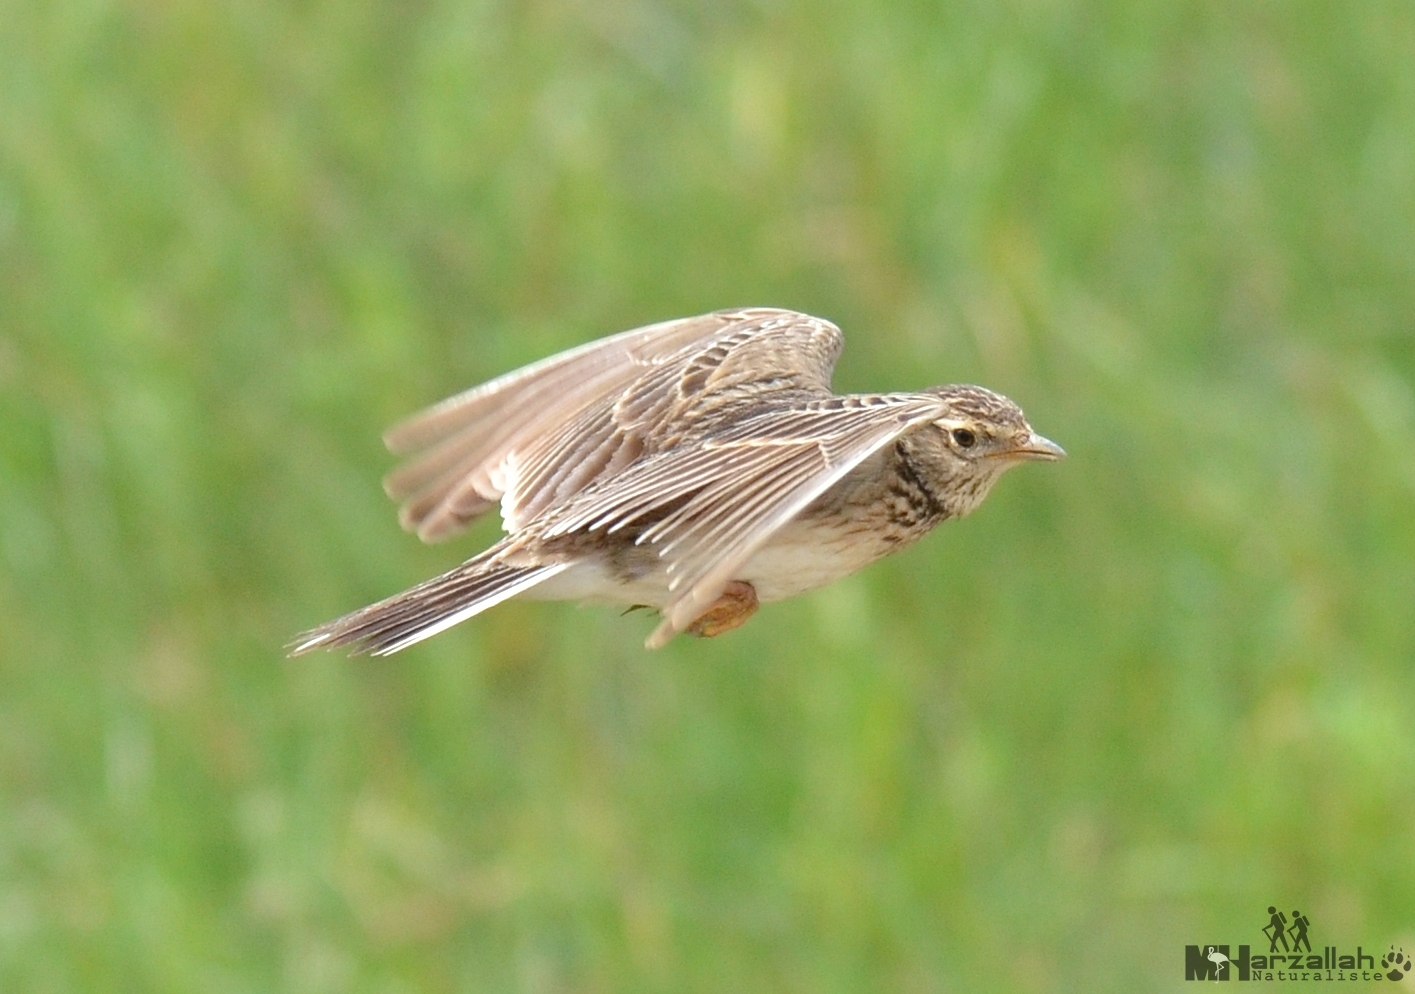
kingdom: Animalia
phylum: Chordata
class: Aves
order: Passeriformes
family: Alaudidae
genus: Alauda
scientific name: Alauda arvensis
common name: Eurasian skylark
